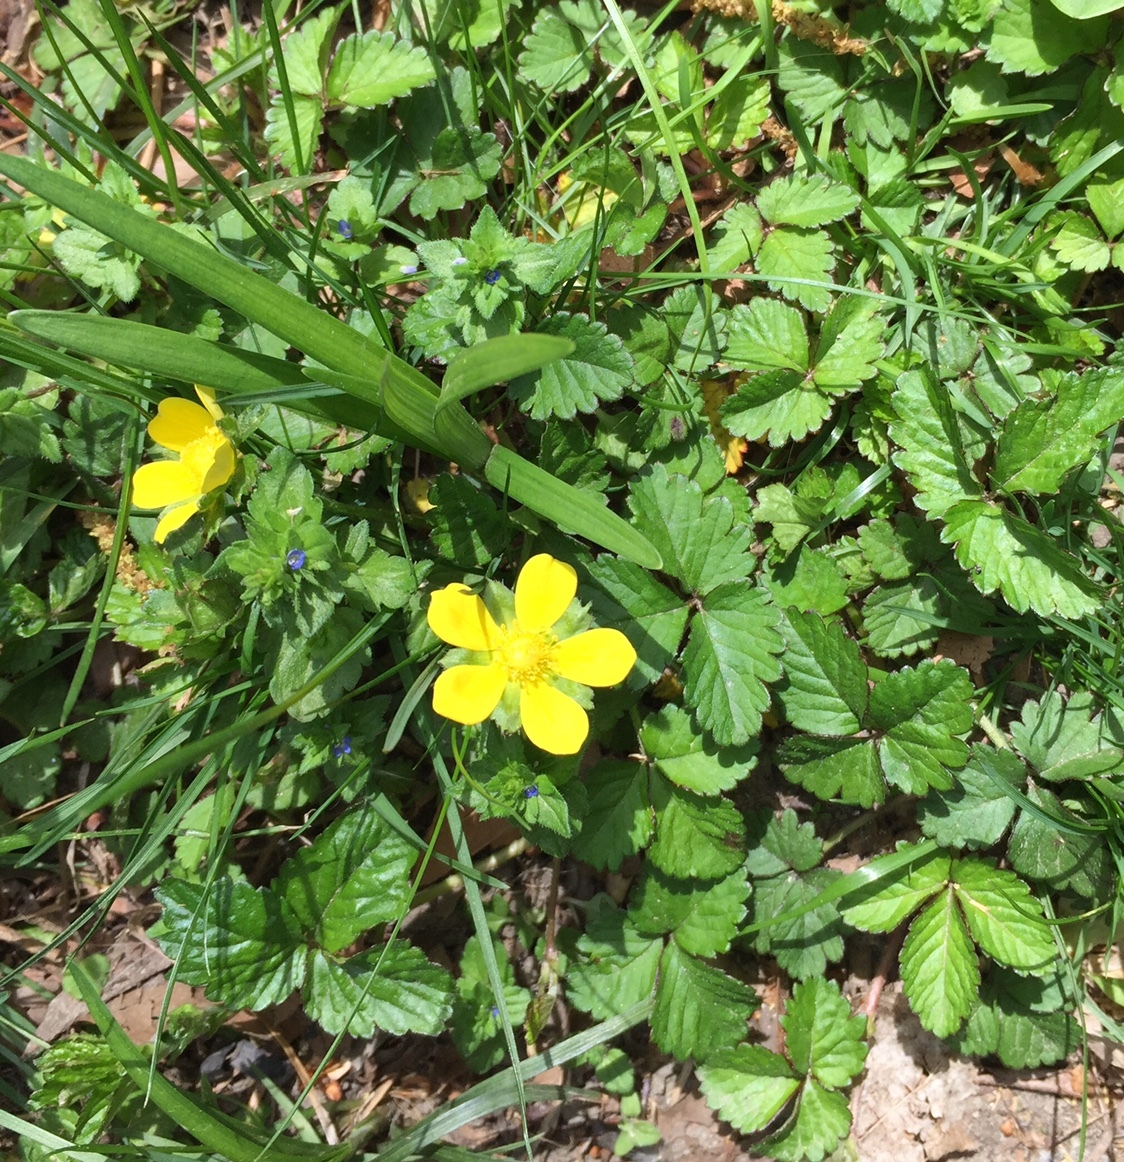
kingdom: Plantae
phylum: Tracheophyta
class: Magnoliopsida
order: Rosales
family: Rosaceae
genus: Potentilla
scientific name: Potentilla indica
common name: Yellow-flowered strawberry
